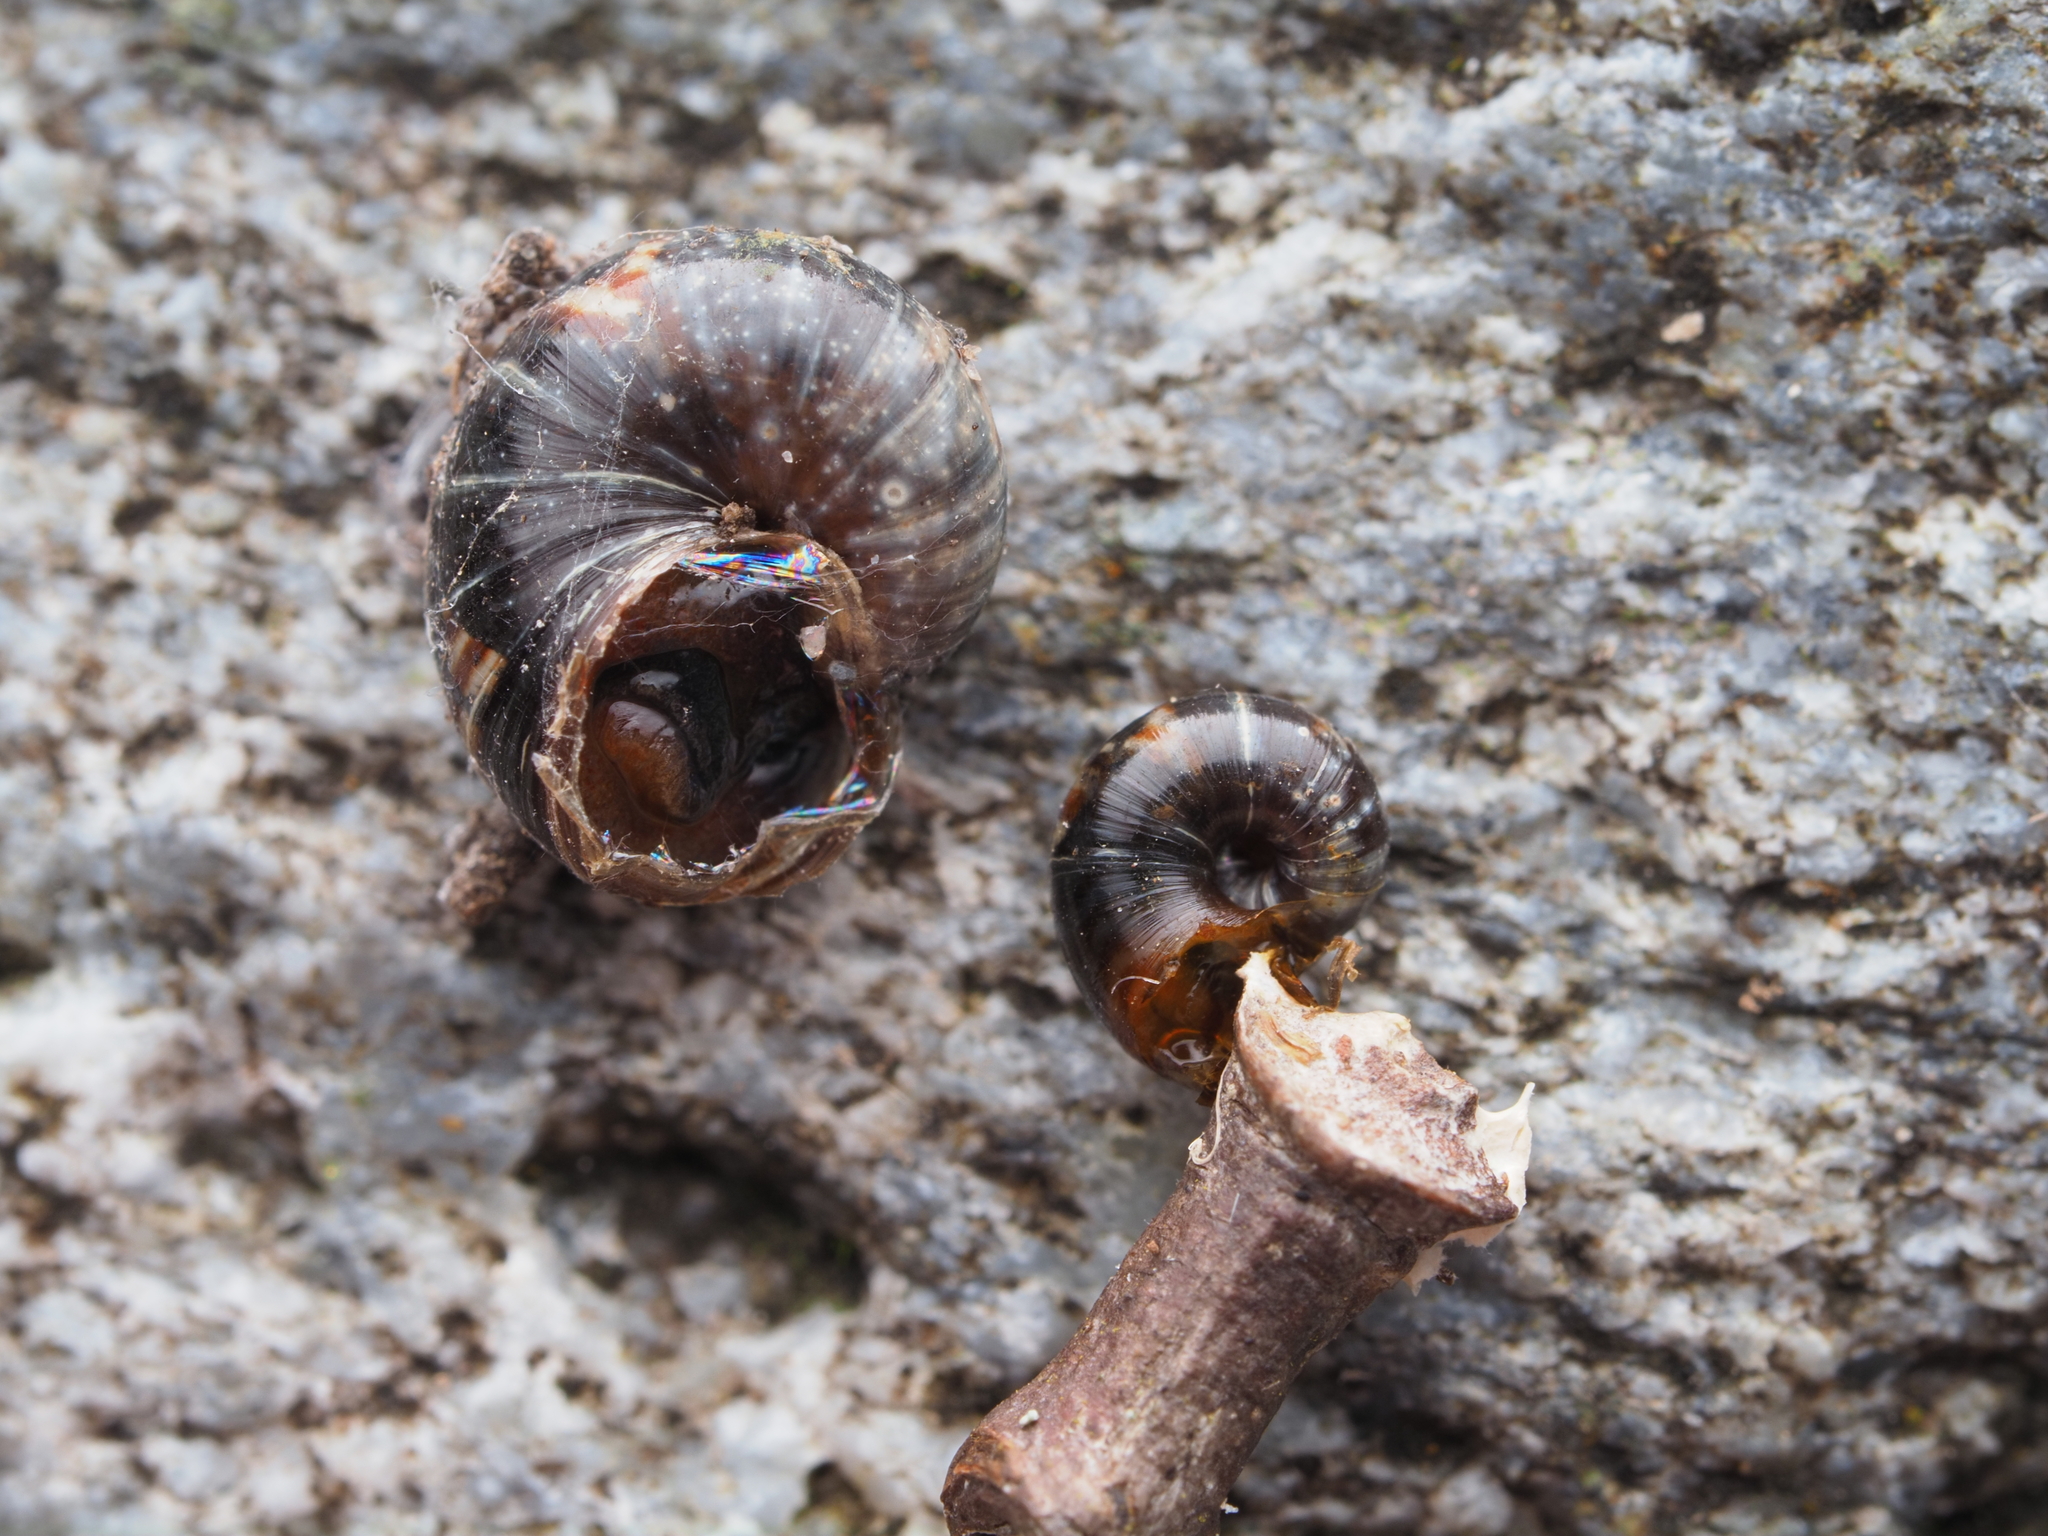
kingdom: Animalia
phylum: Mollusca
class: Gastropoda
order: Stylommatophora
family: Charopidae
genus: Flammulina
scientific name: Flammulina zebra
